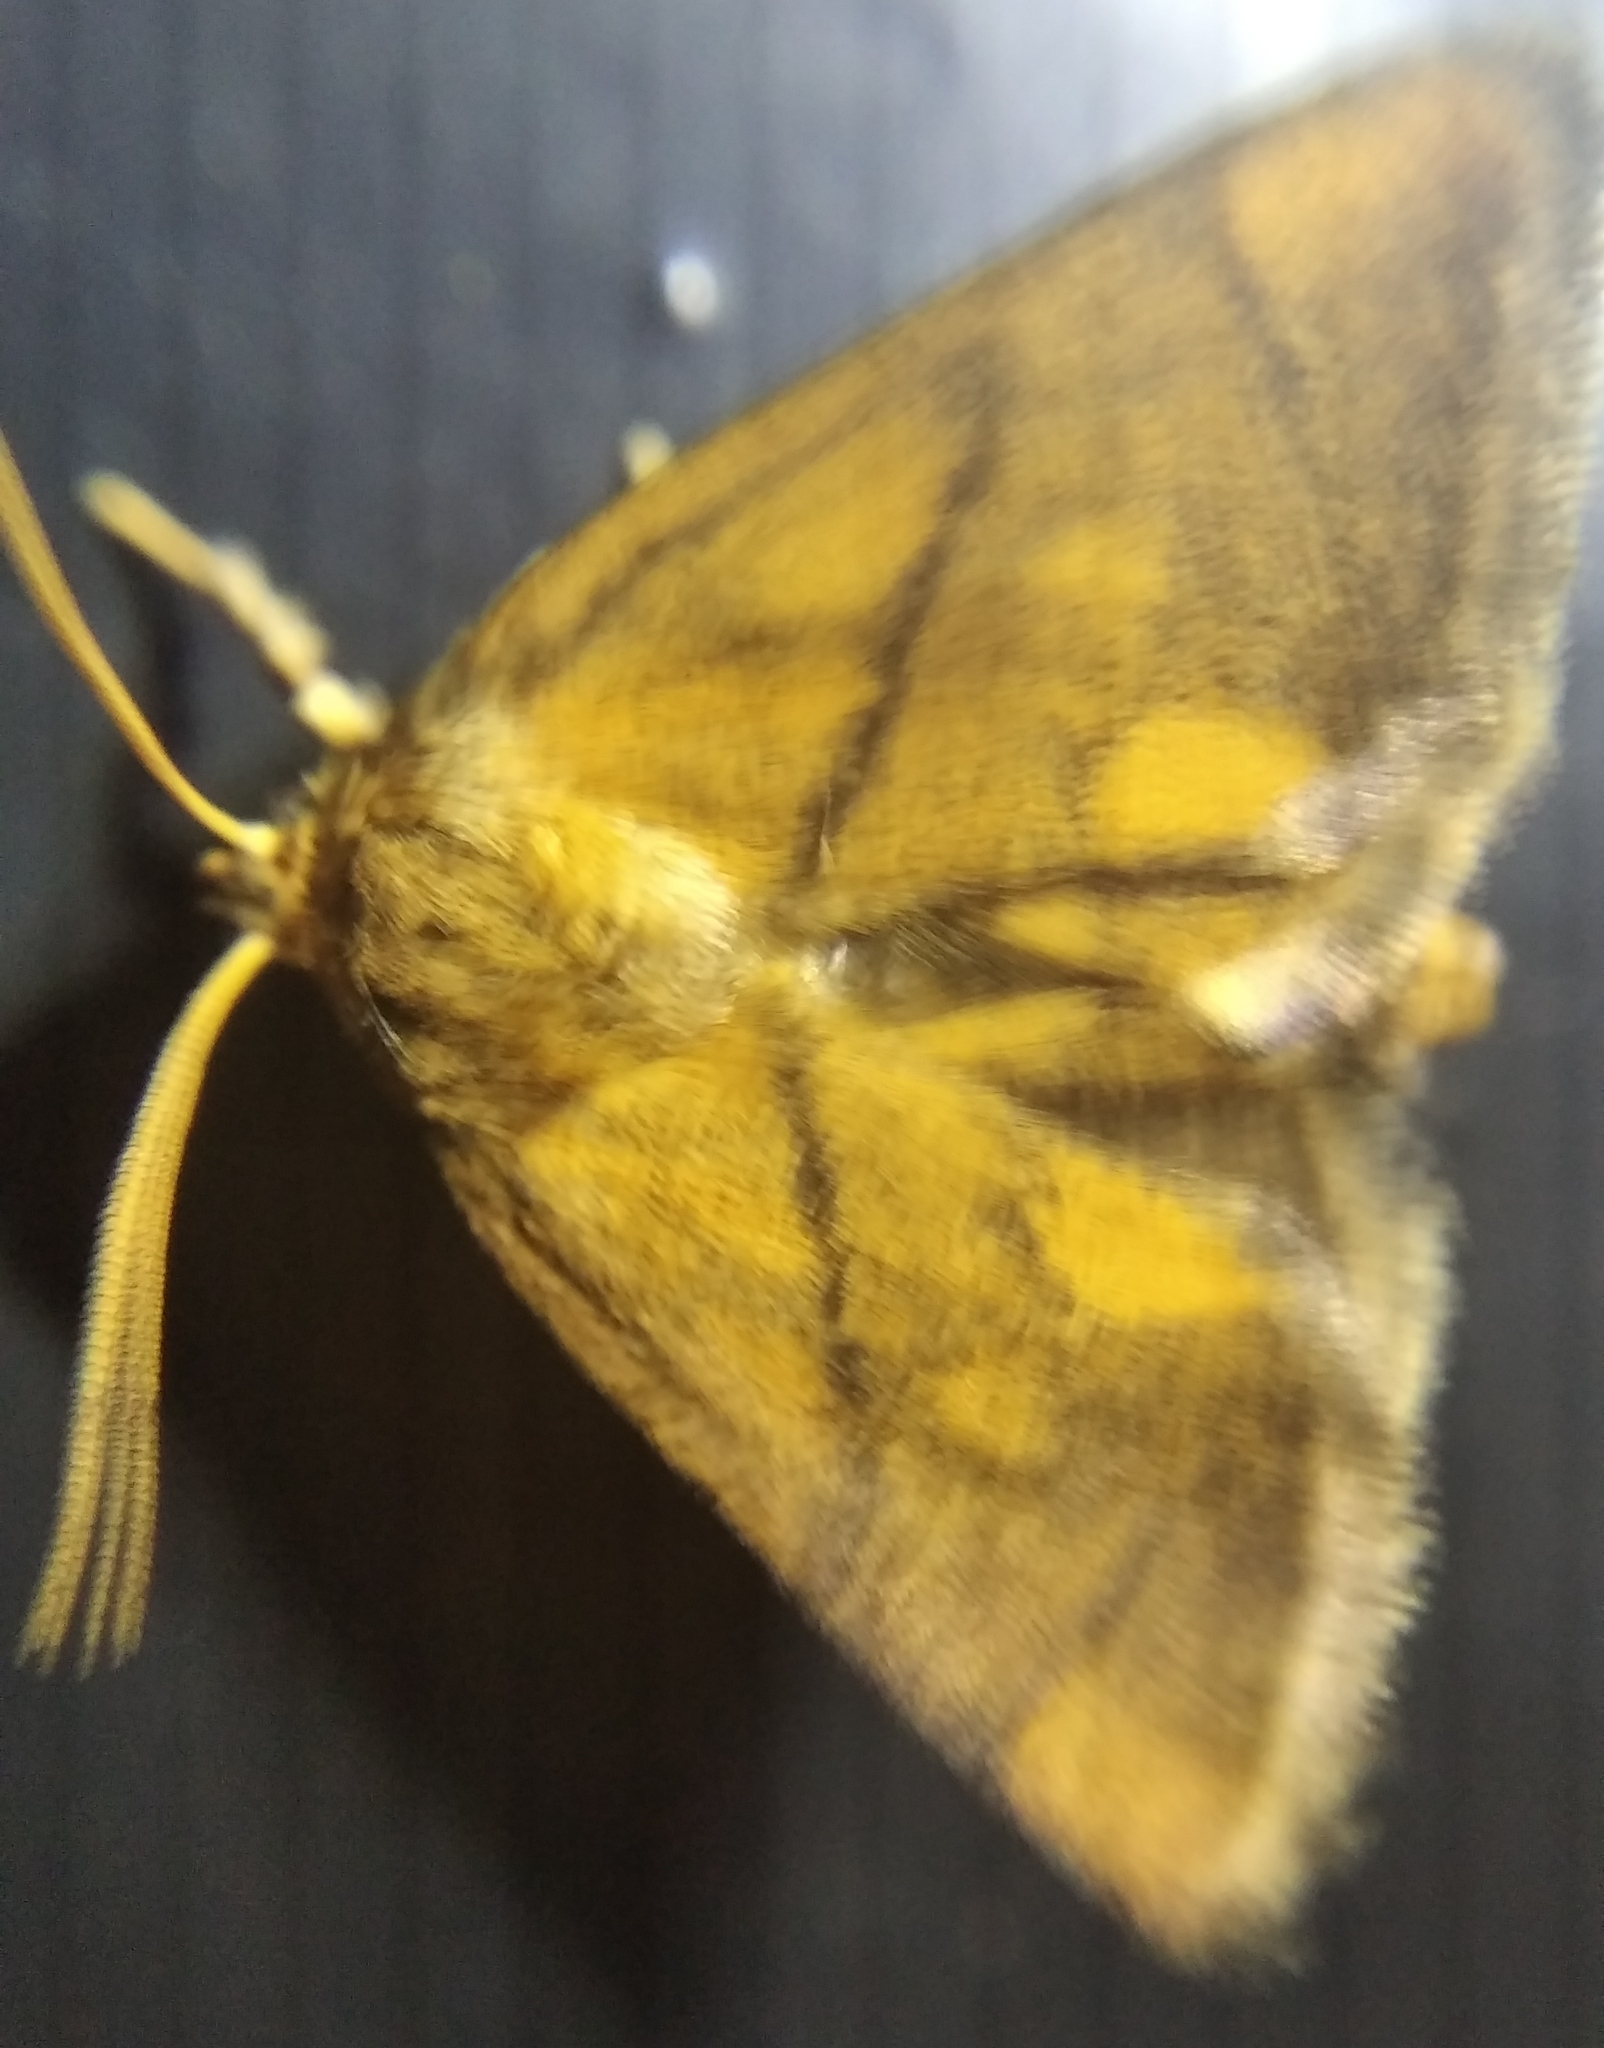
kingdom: Animalia
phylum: Arthropoda
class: Insecta
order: Lepidoptera
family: Limacodidae
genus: Apoda
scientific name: Apoda limacodes
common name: Festoon
